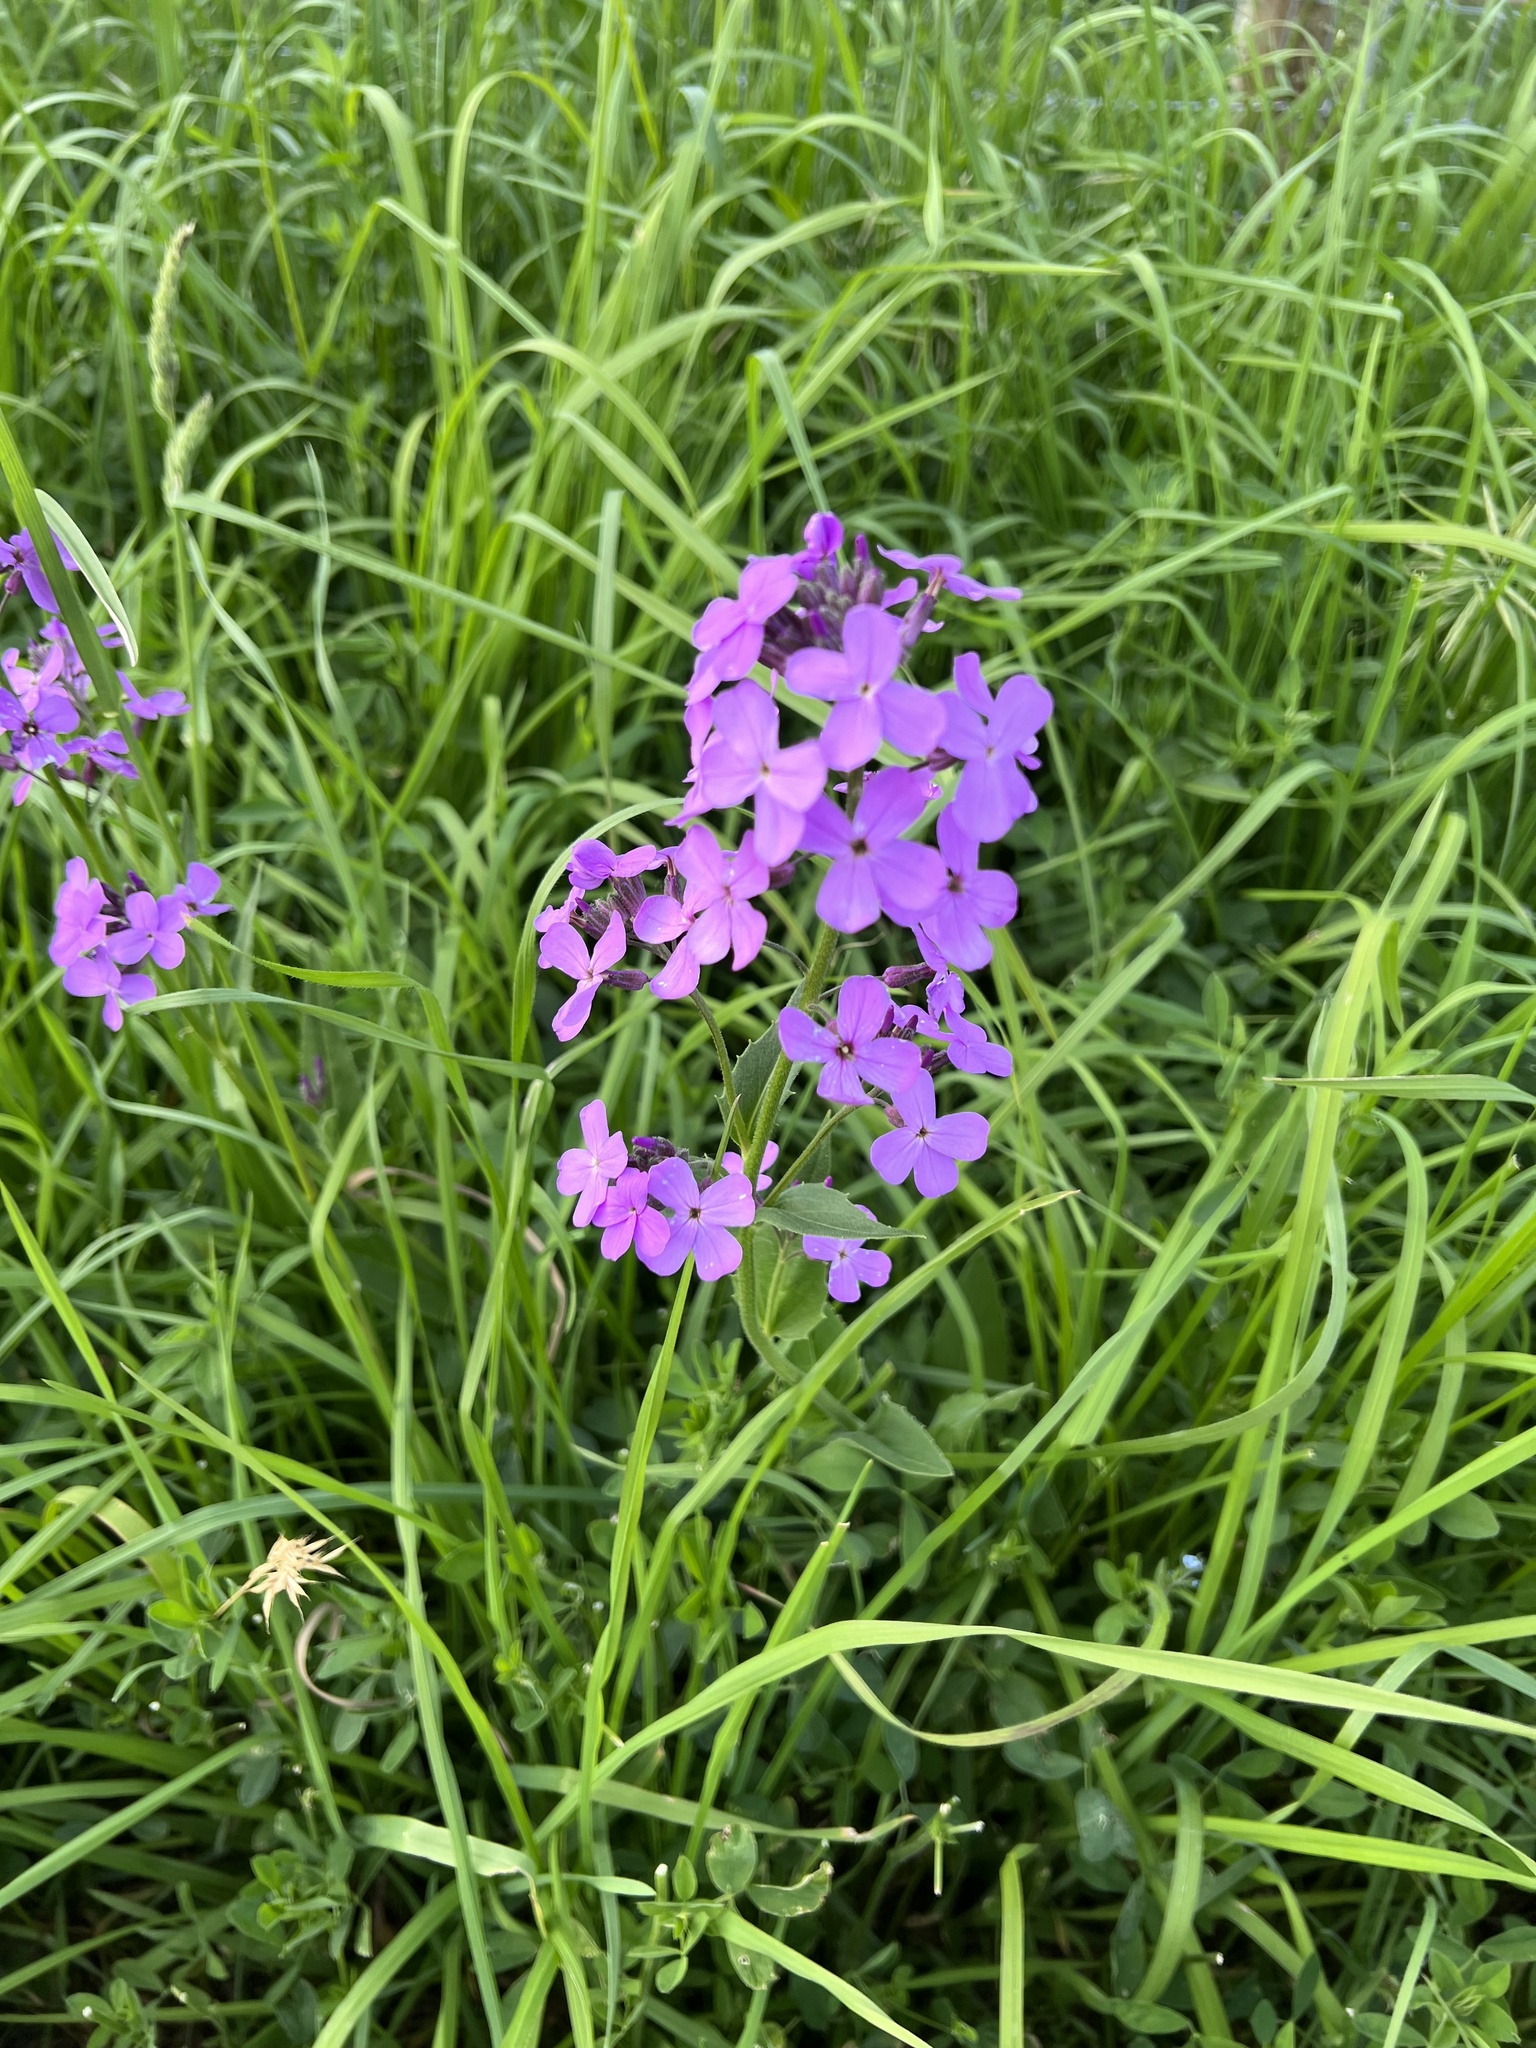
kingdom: Plantae
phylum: Tracheophyta
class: Magnoliopsida
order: Brassicales
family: Brassicaceae
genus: Hesperis
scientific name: Hesperis matronalis
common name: Dame's-violet
